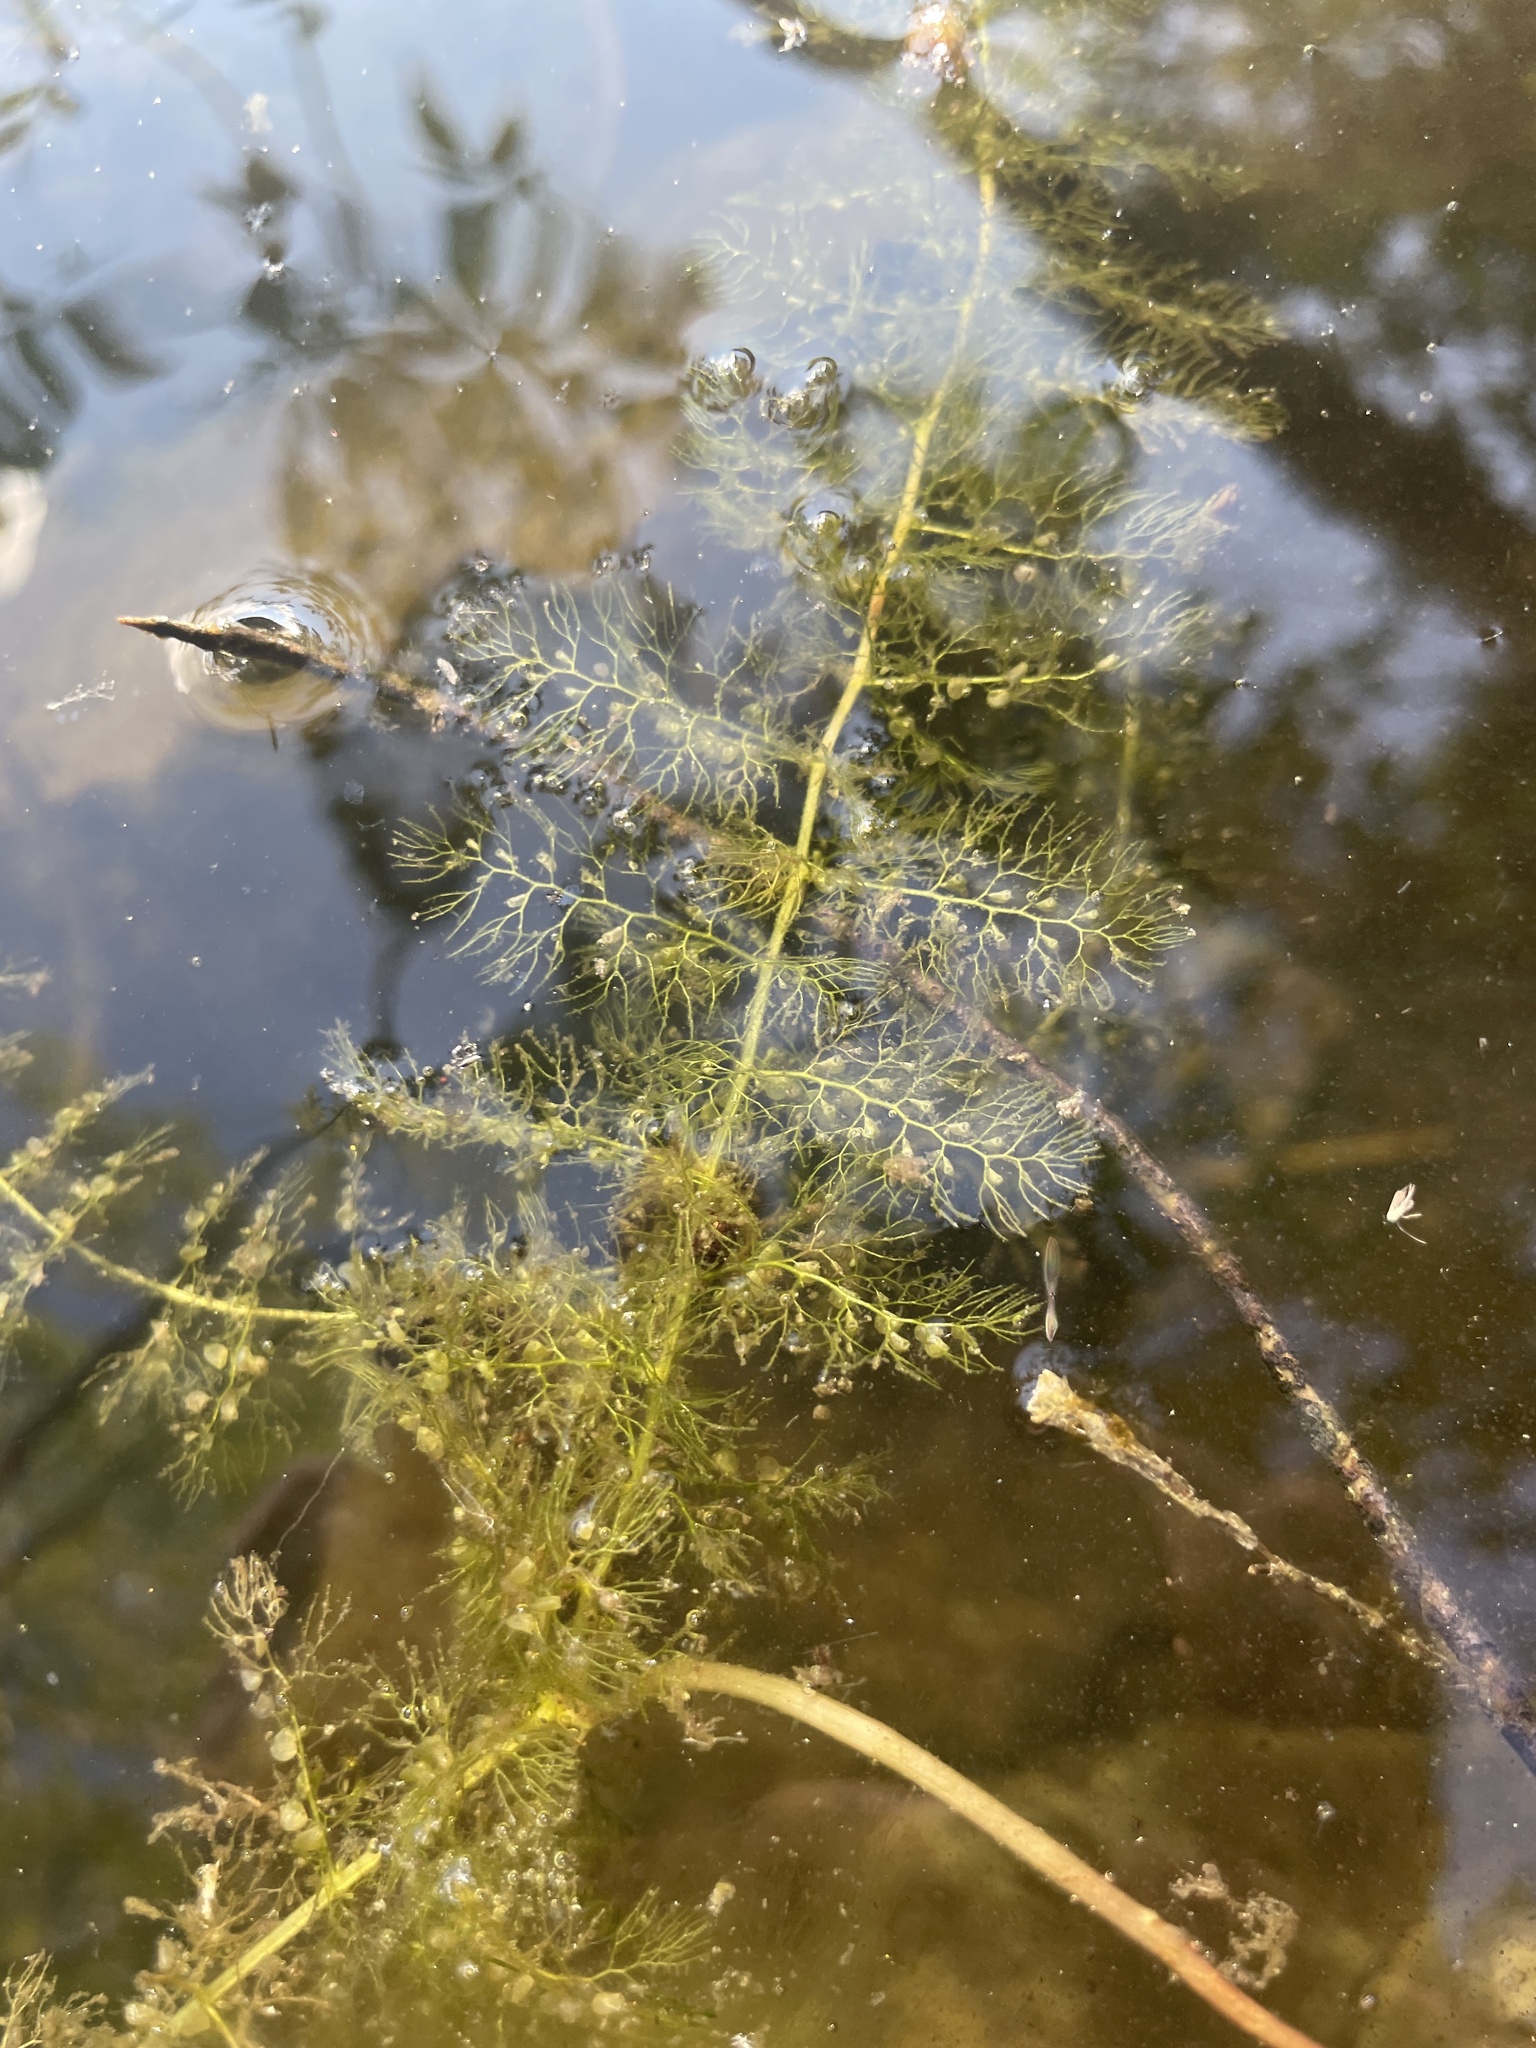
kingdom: Plantae
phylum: Tracheophyta
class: Magnoliopsida
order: Lamiales
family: Lentibulariaceae
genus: Utricularia
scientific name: Utricularia macrorhiza
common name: Common bladderwort
